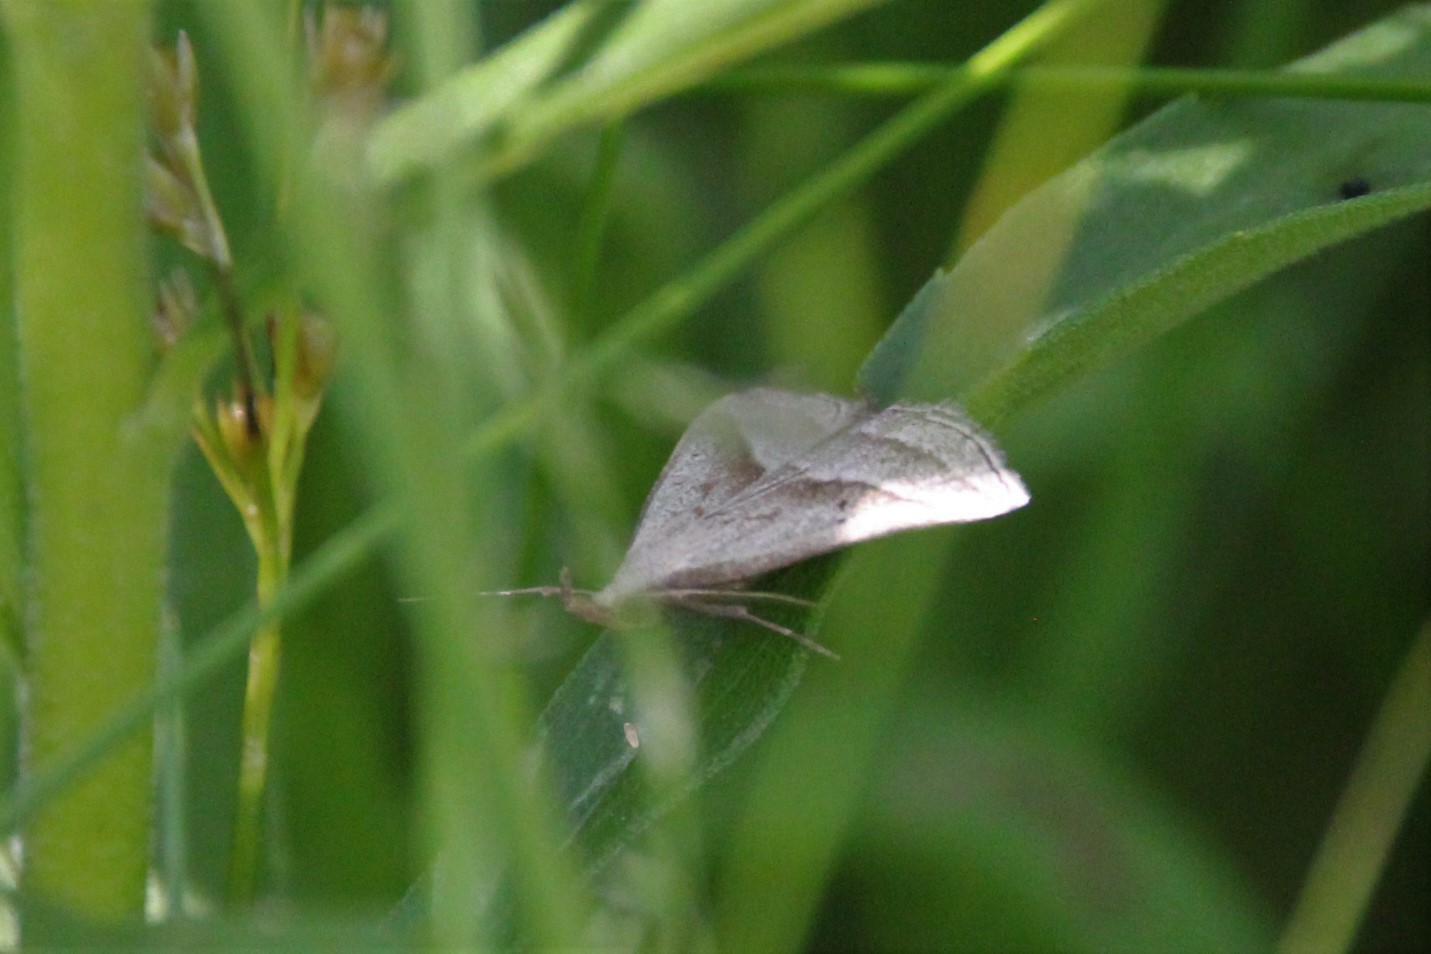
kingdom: Animalia
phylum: Arthropoda
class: Insecta
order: Lepidoptera
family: Erebidae
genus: Macrochilo
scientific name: Macrochilo absorptalis
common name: Slant-lined owlet
